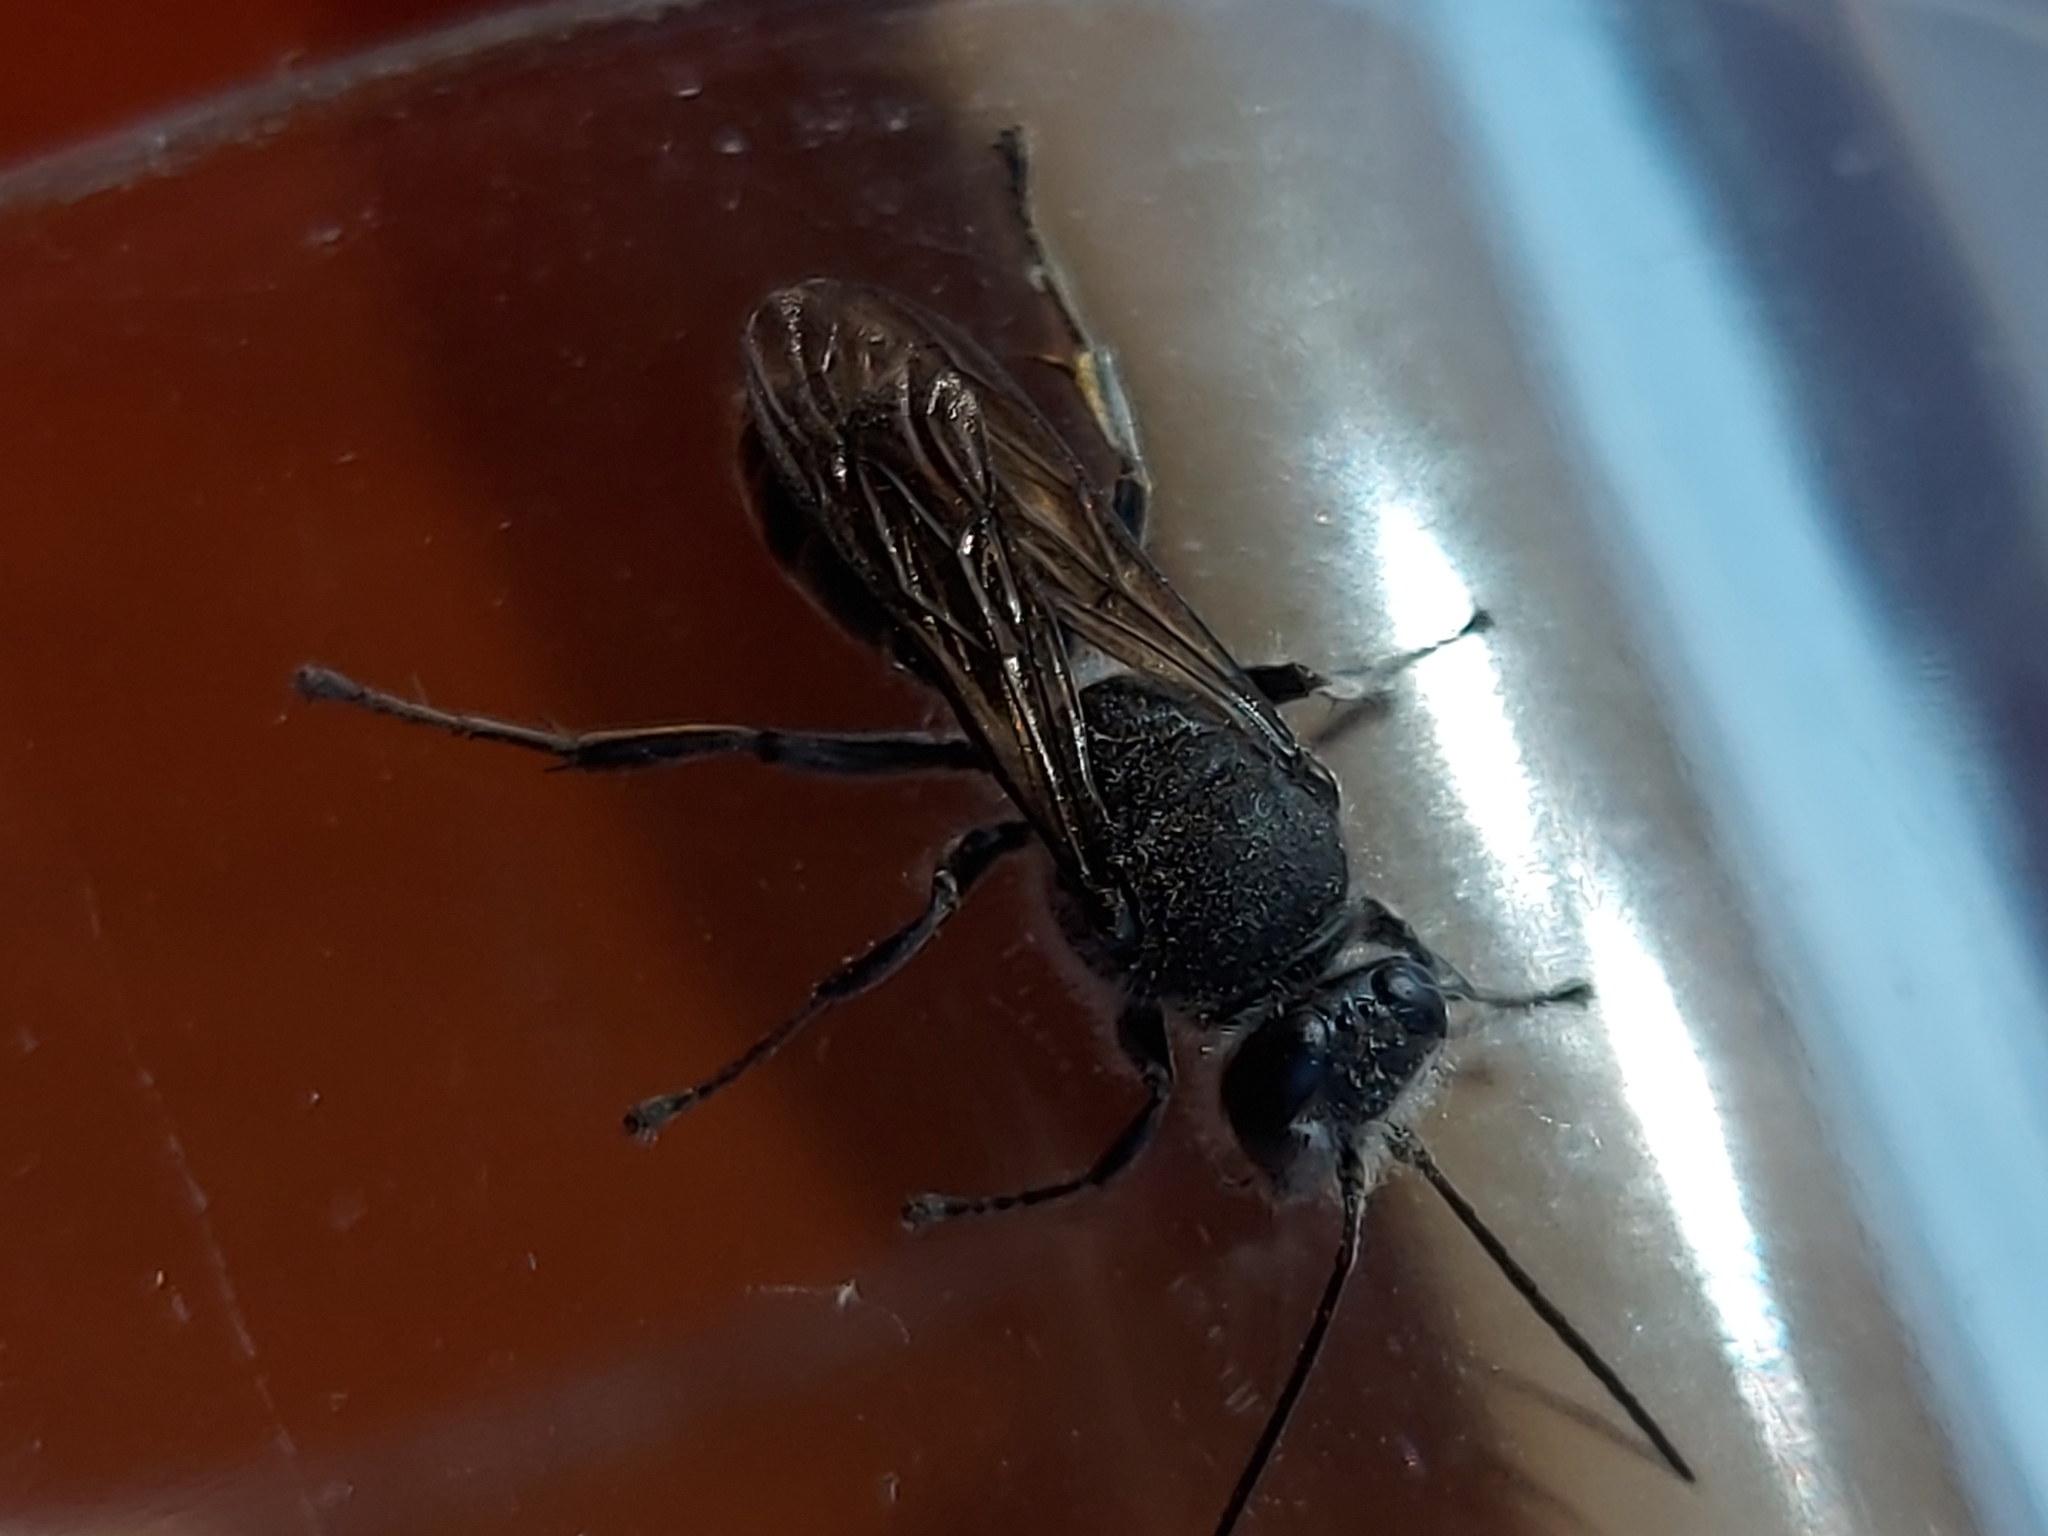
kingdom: Animalia
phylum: Arthropoda
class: Insecta
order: Hymenoptera
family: Crabronidae
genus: Pison
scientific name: Pison spinolae
